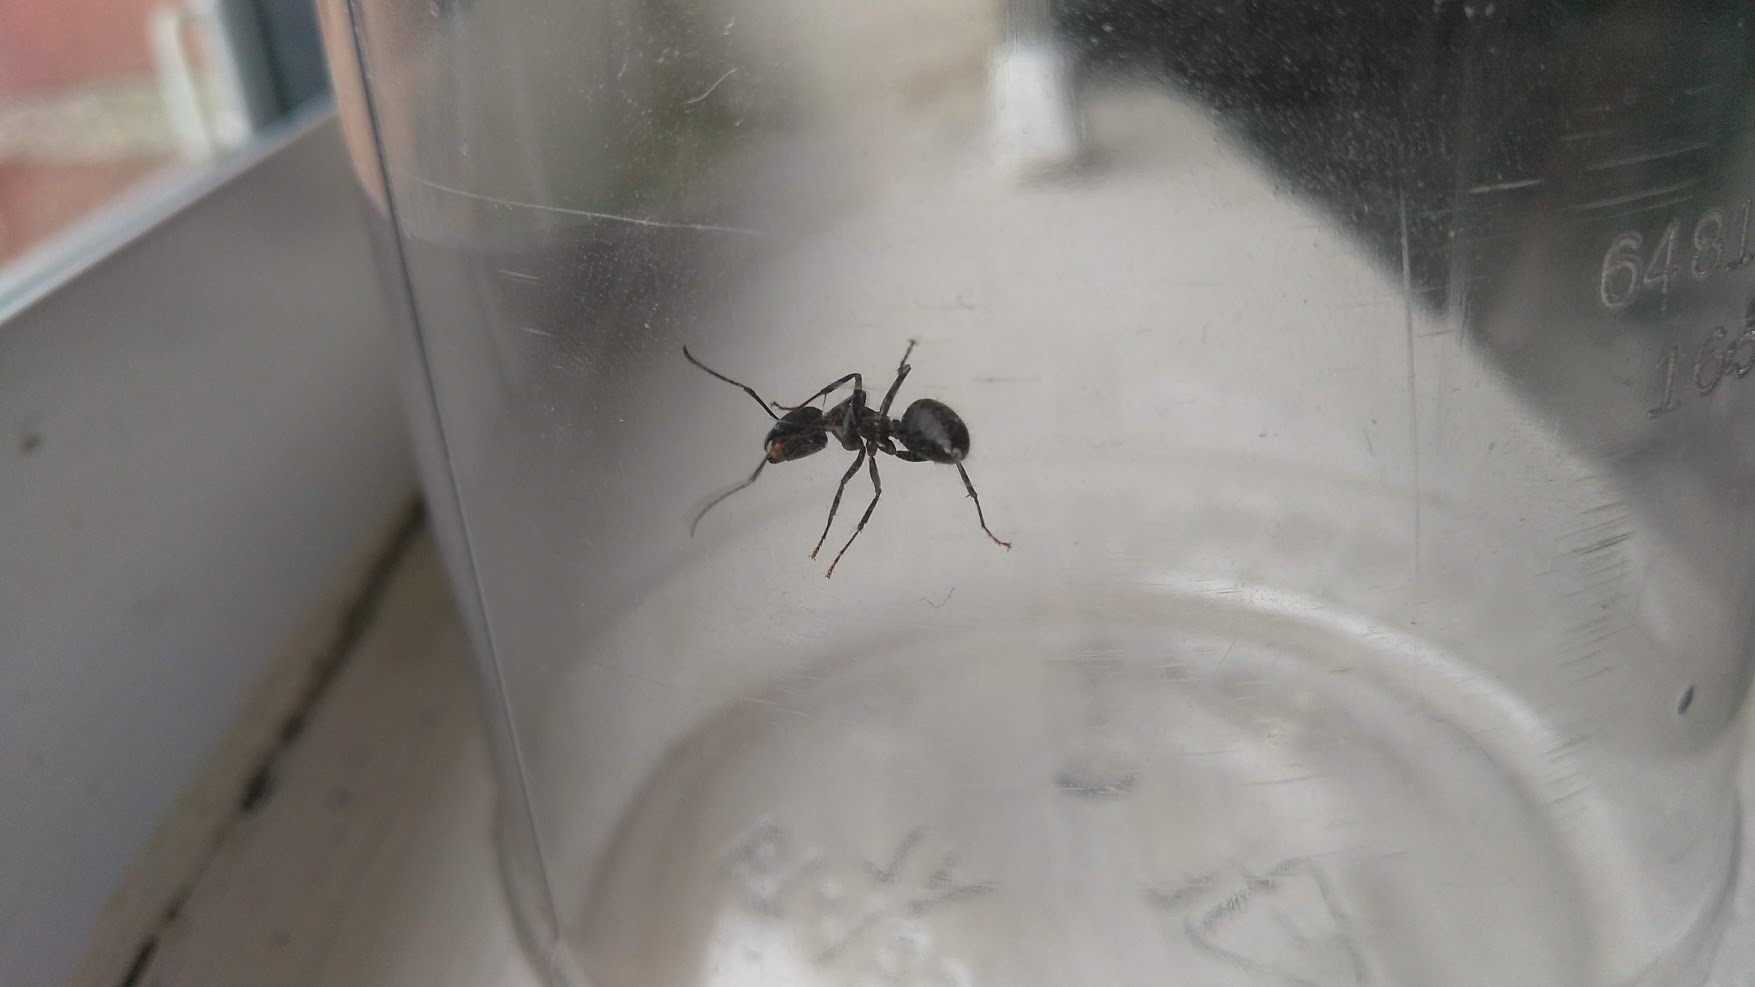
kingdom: Animalia
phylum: Arthropoda
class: Insecta
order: Hymenoptera
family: Formicidae
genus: Camponotus
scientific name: Camponotus pennsylvanicus
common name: Black carpenter ant
